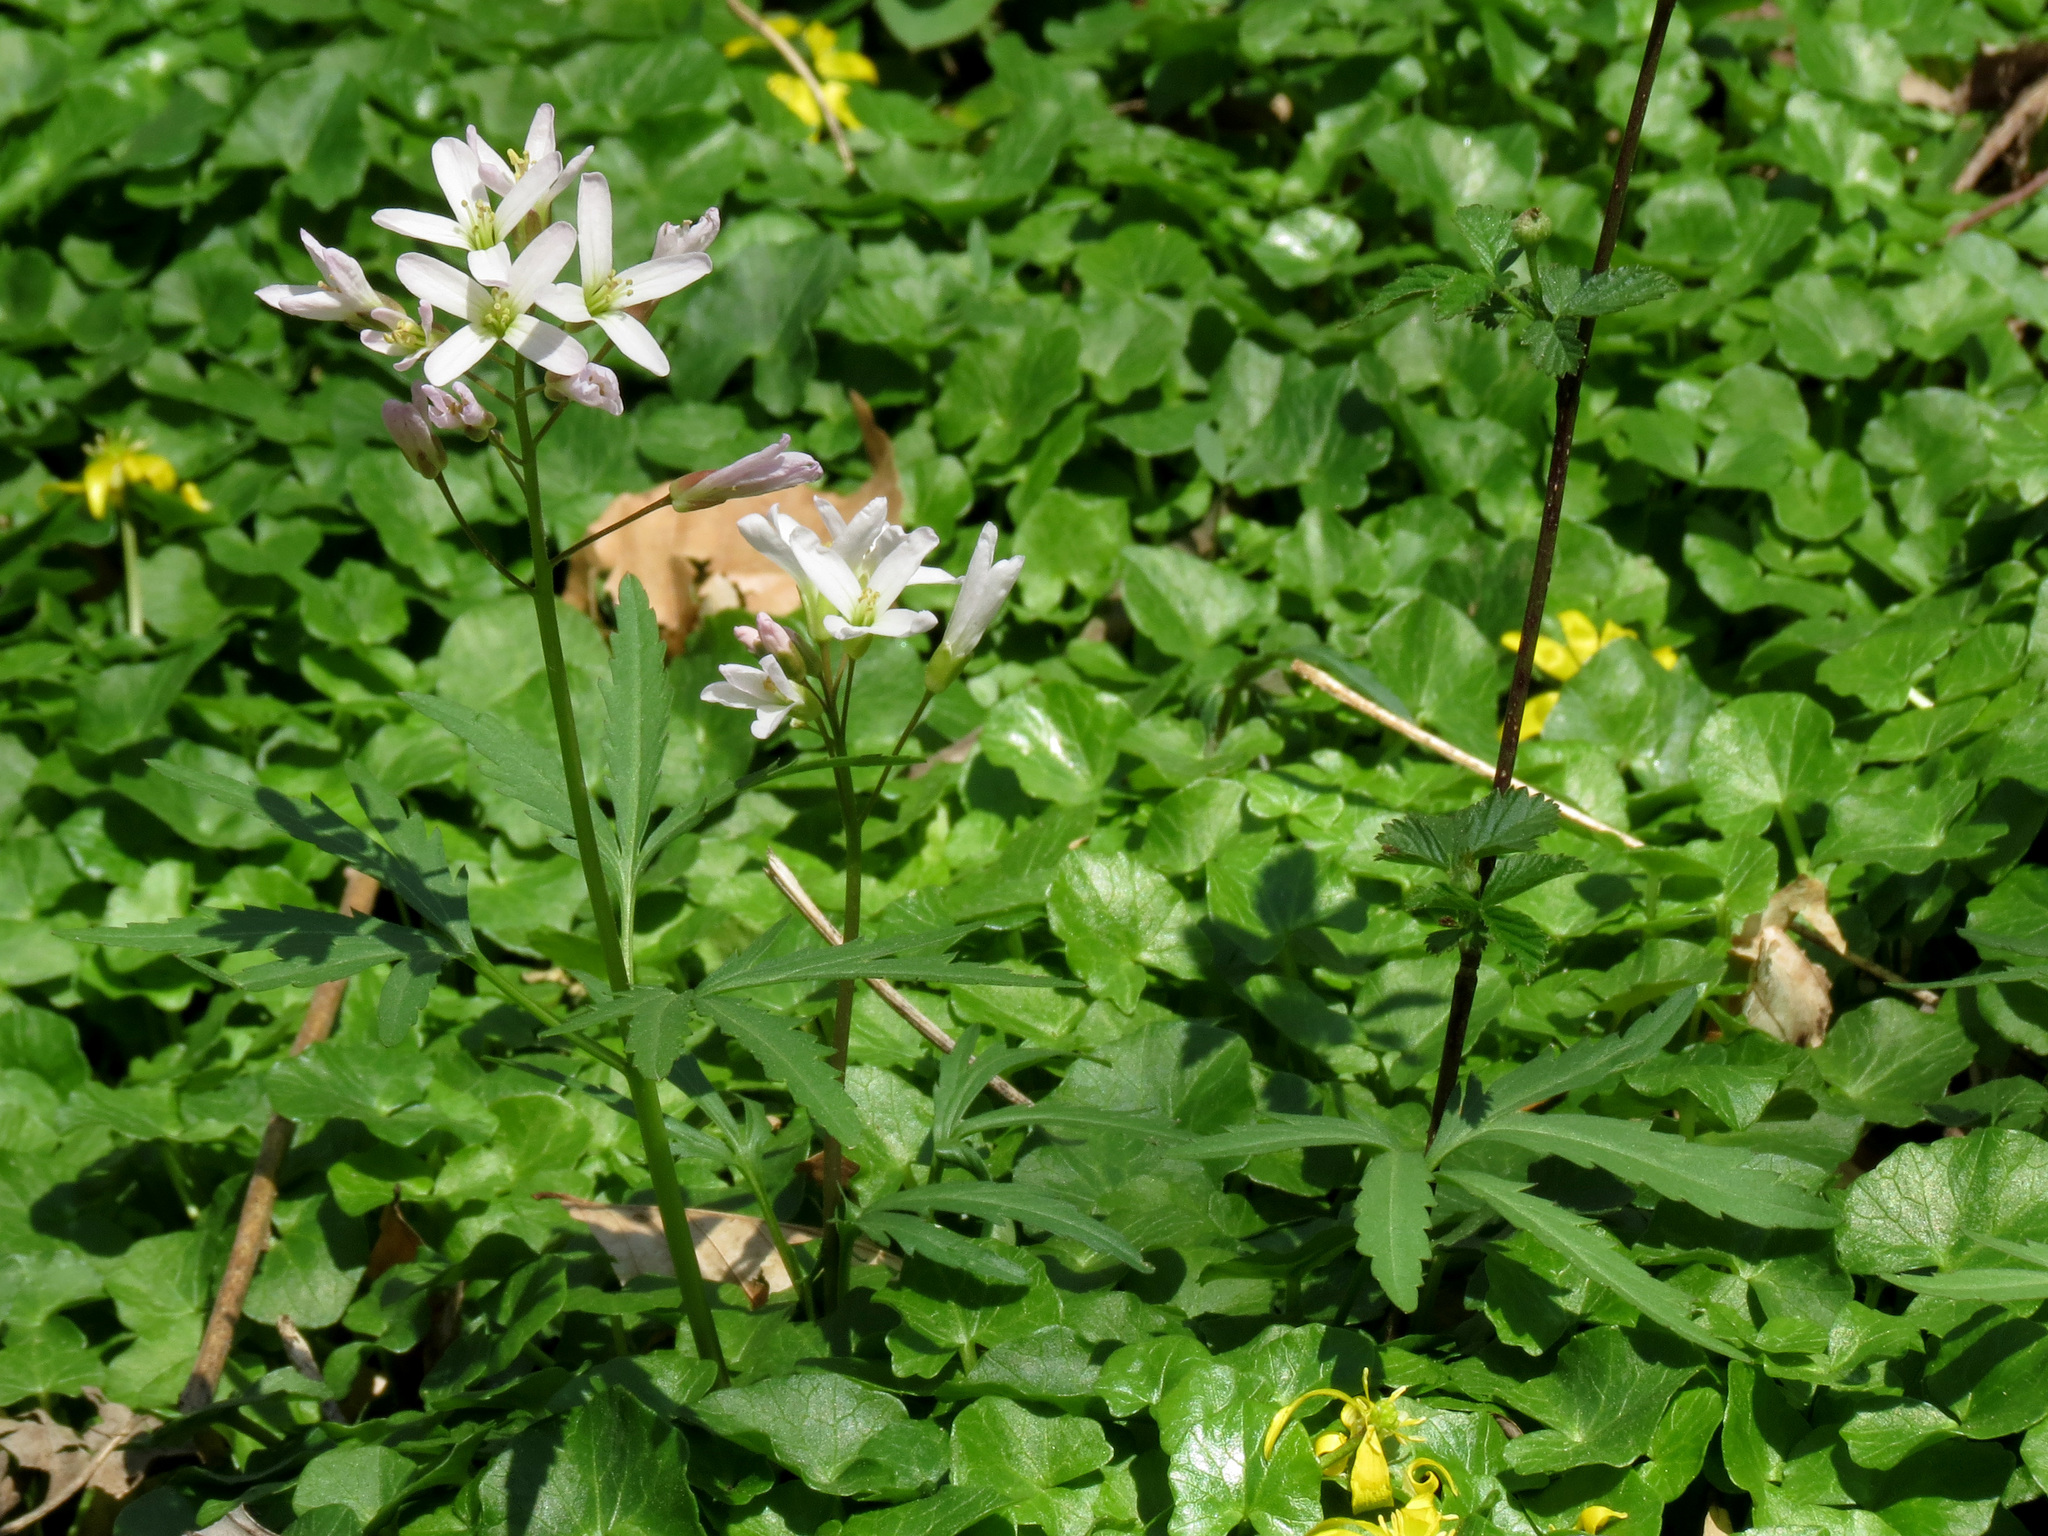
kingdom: Plantae
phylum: Tracheophyta
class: Magnoliopsida
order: Brassicales
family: Brassicaceae
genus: Cardamine
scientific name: Cardamine concatenata
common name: Cut-leaf toothcup
